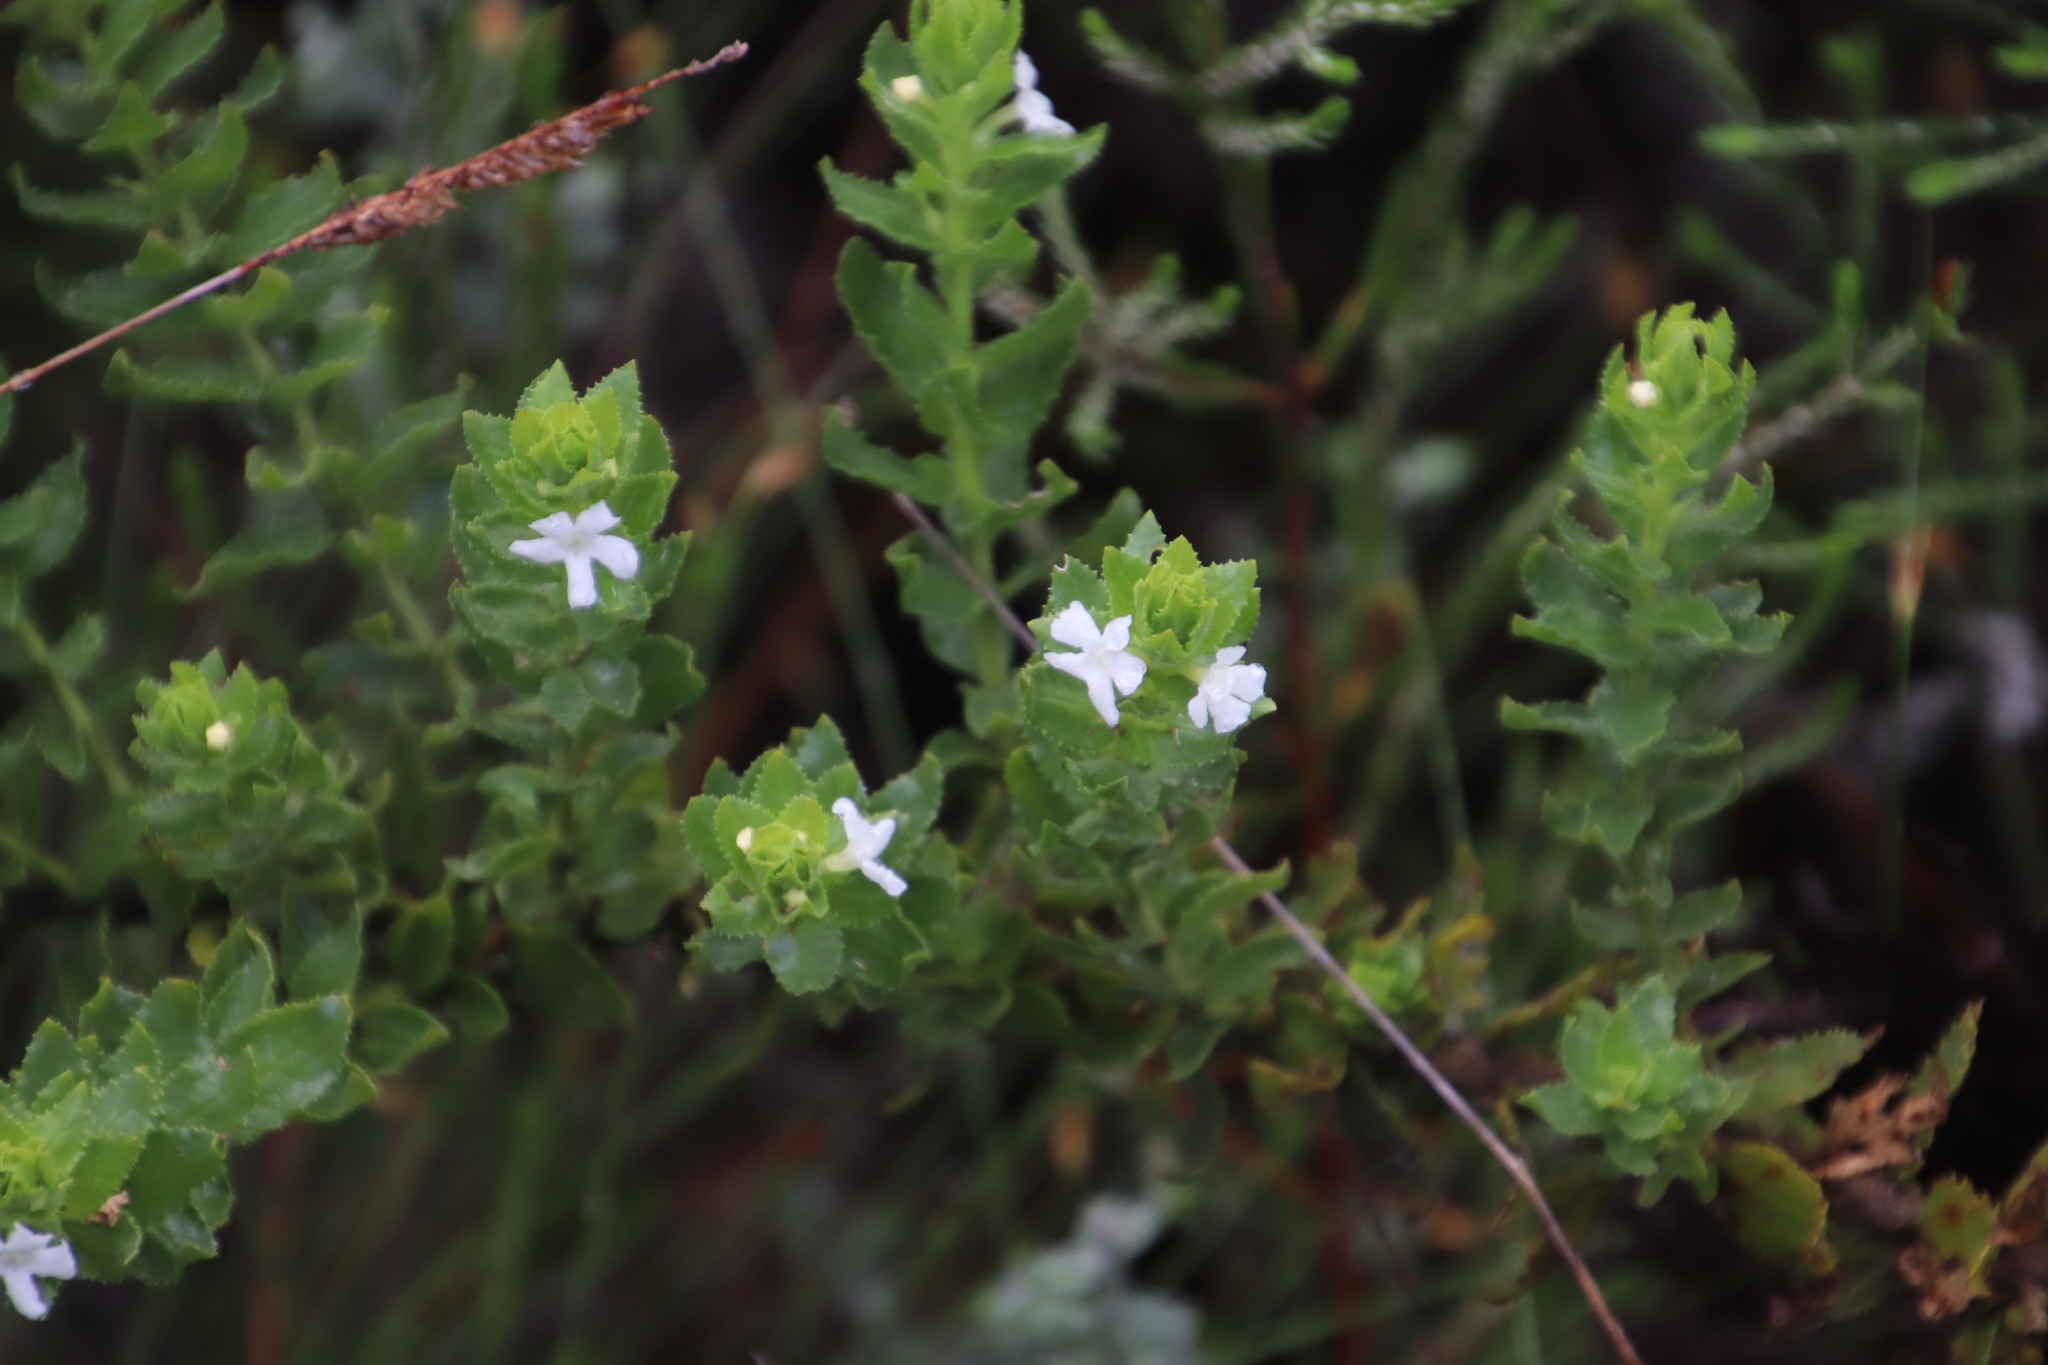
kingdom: Plantae
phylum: Tracheophyta
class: Magnoliopsida
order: Lamiales
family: Scrophulariaceae
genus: Oftia
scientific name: Oftia africana
